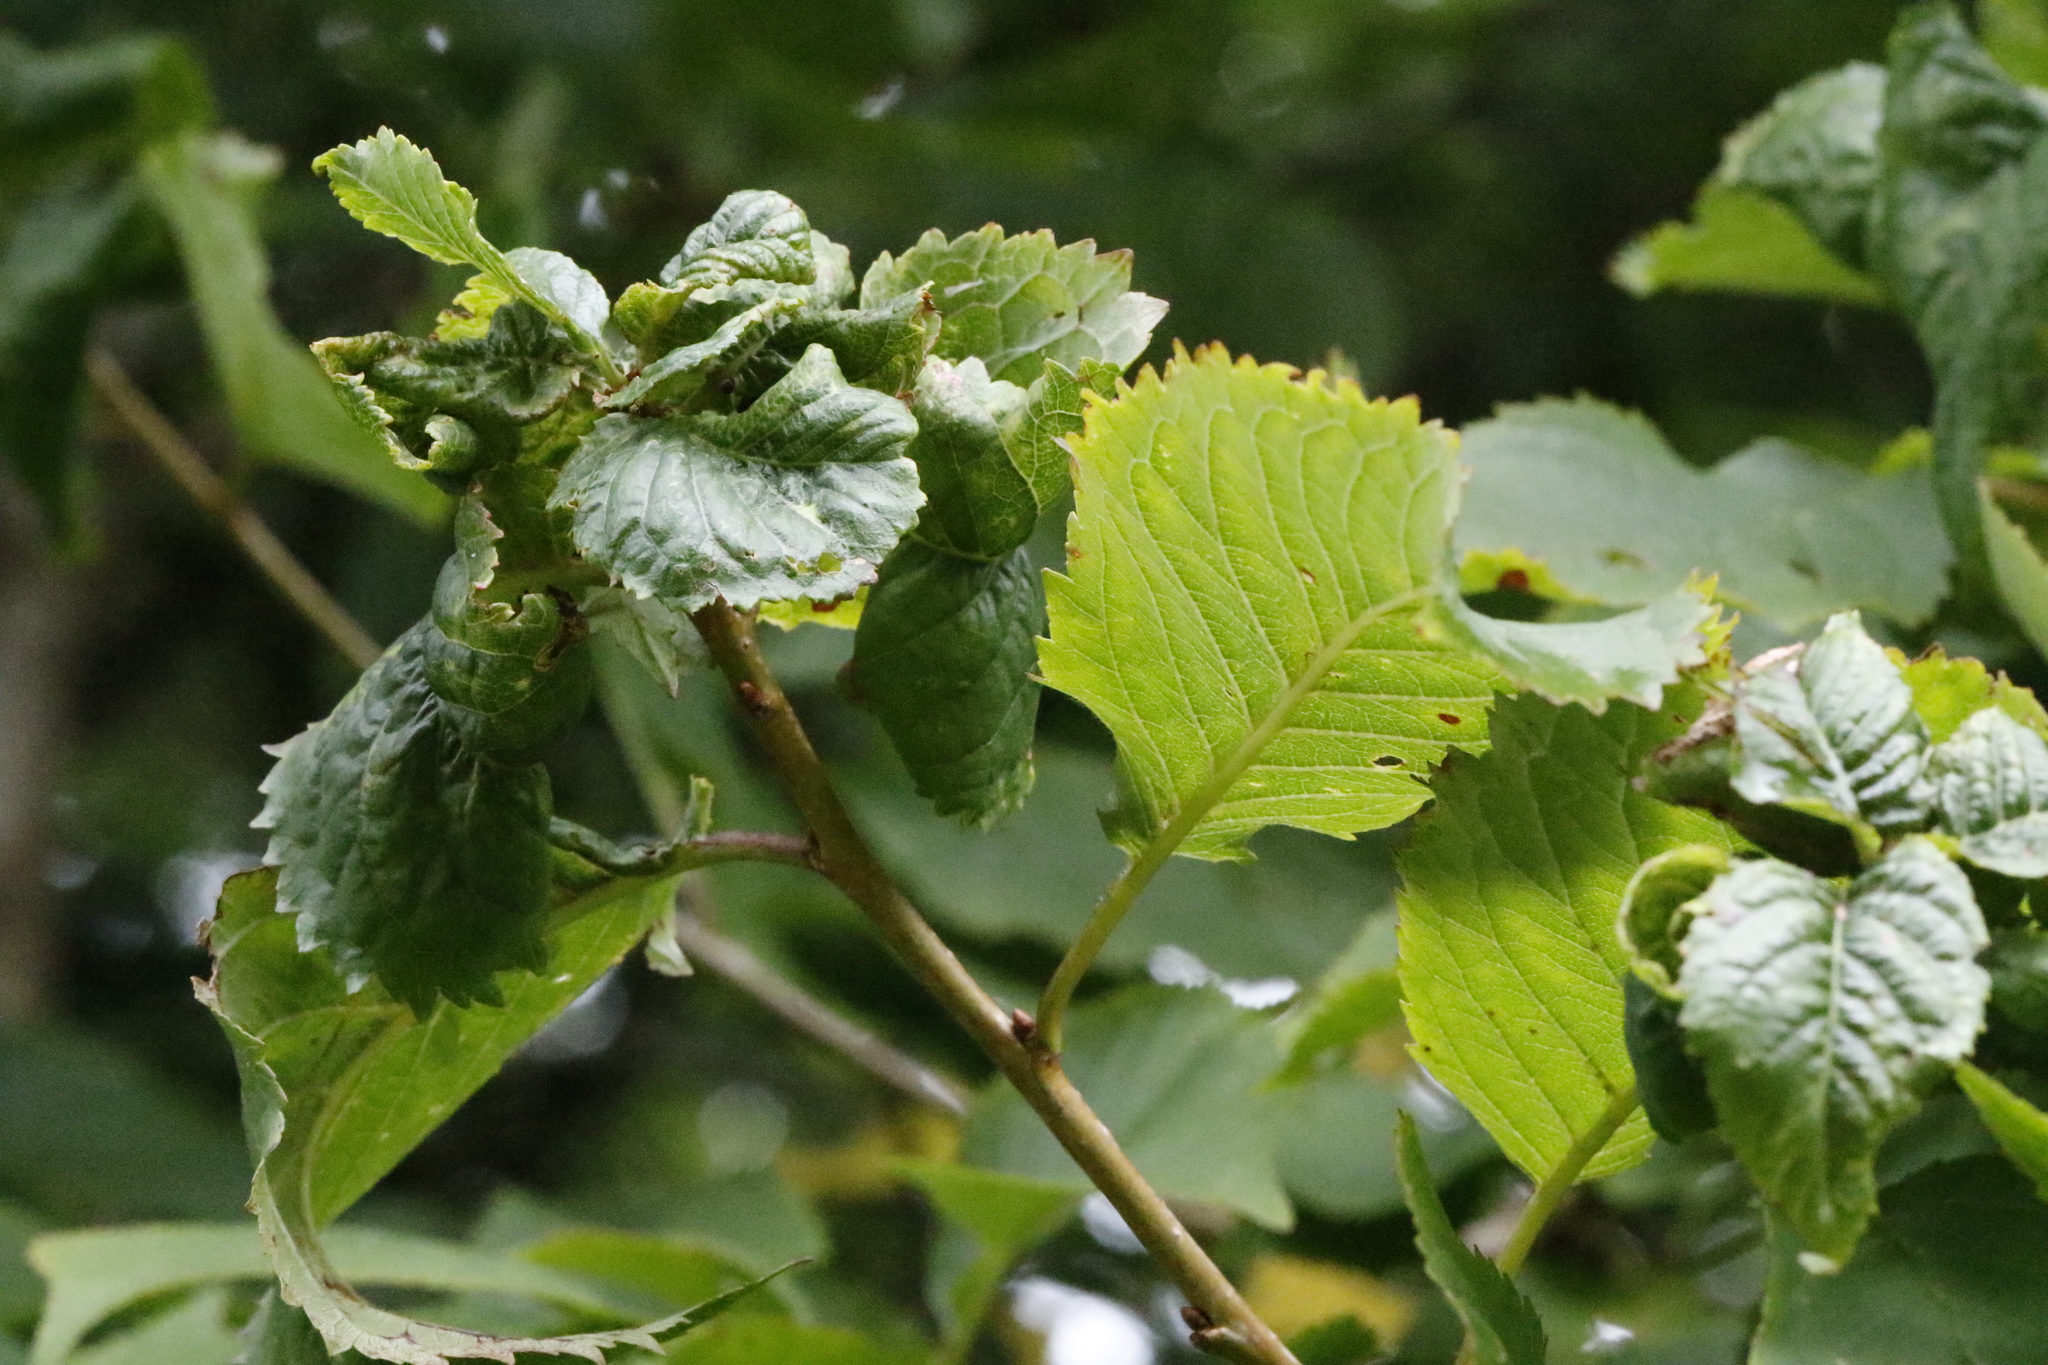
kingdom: Animalia
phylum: Arthropoda
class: Insecta
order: Hemiptera
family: Aphididae
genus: Myzus
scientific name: Myzus cerasi
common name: Black cherry aphid
